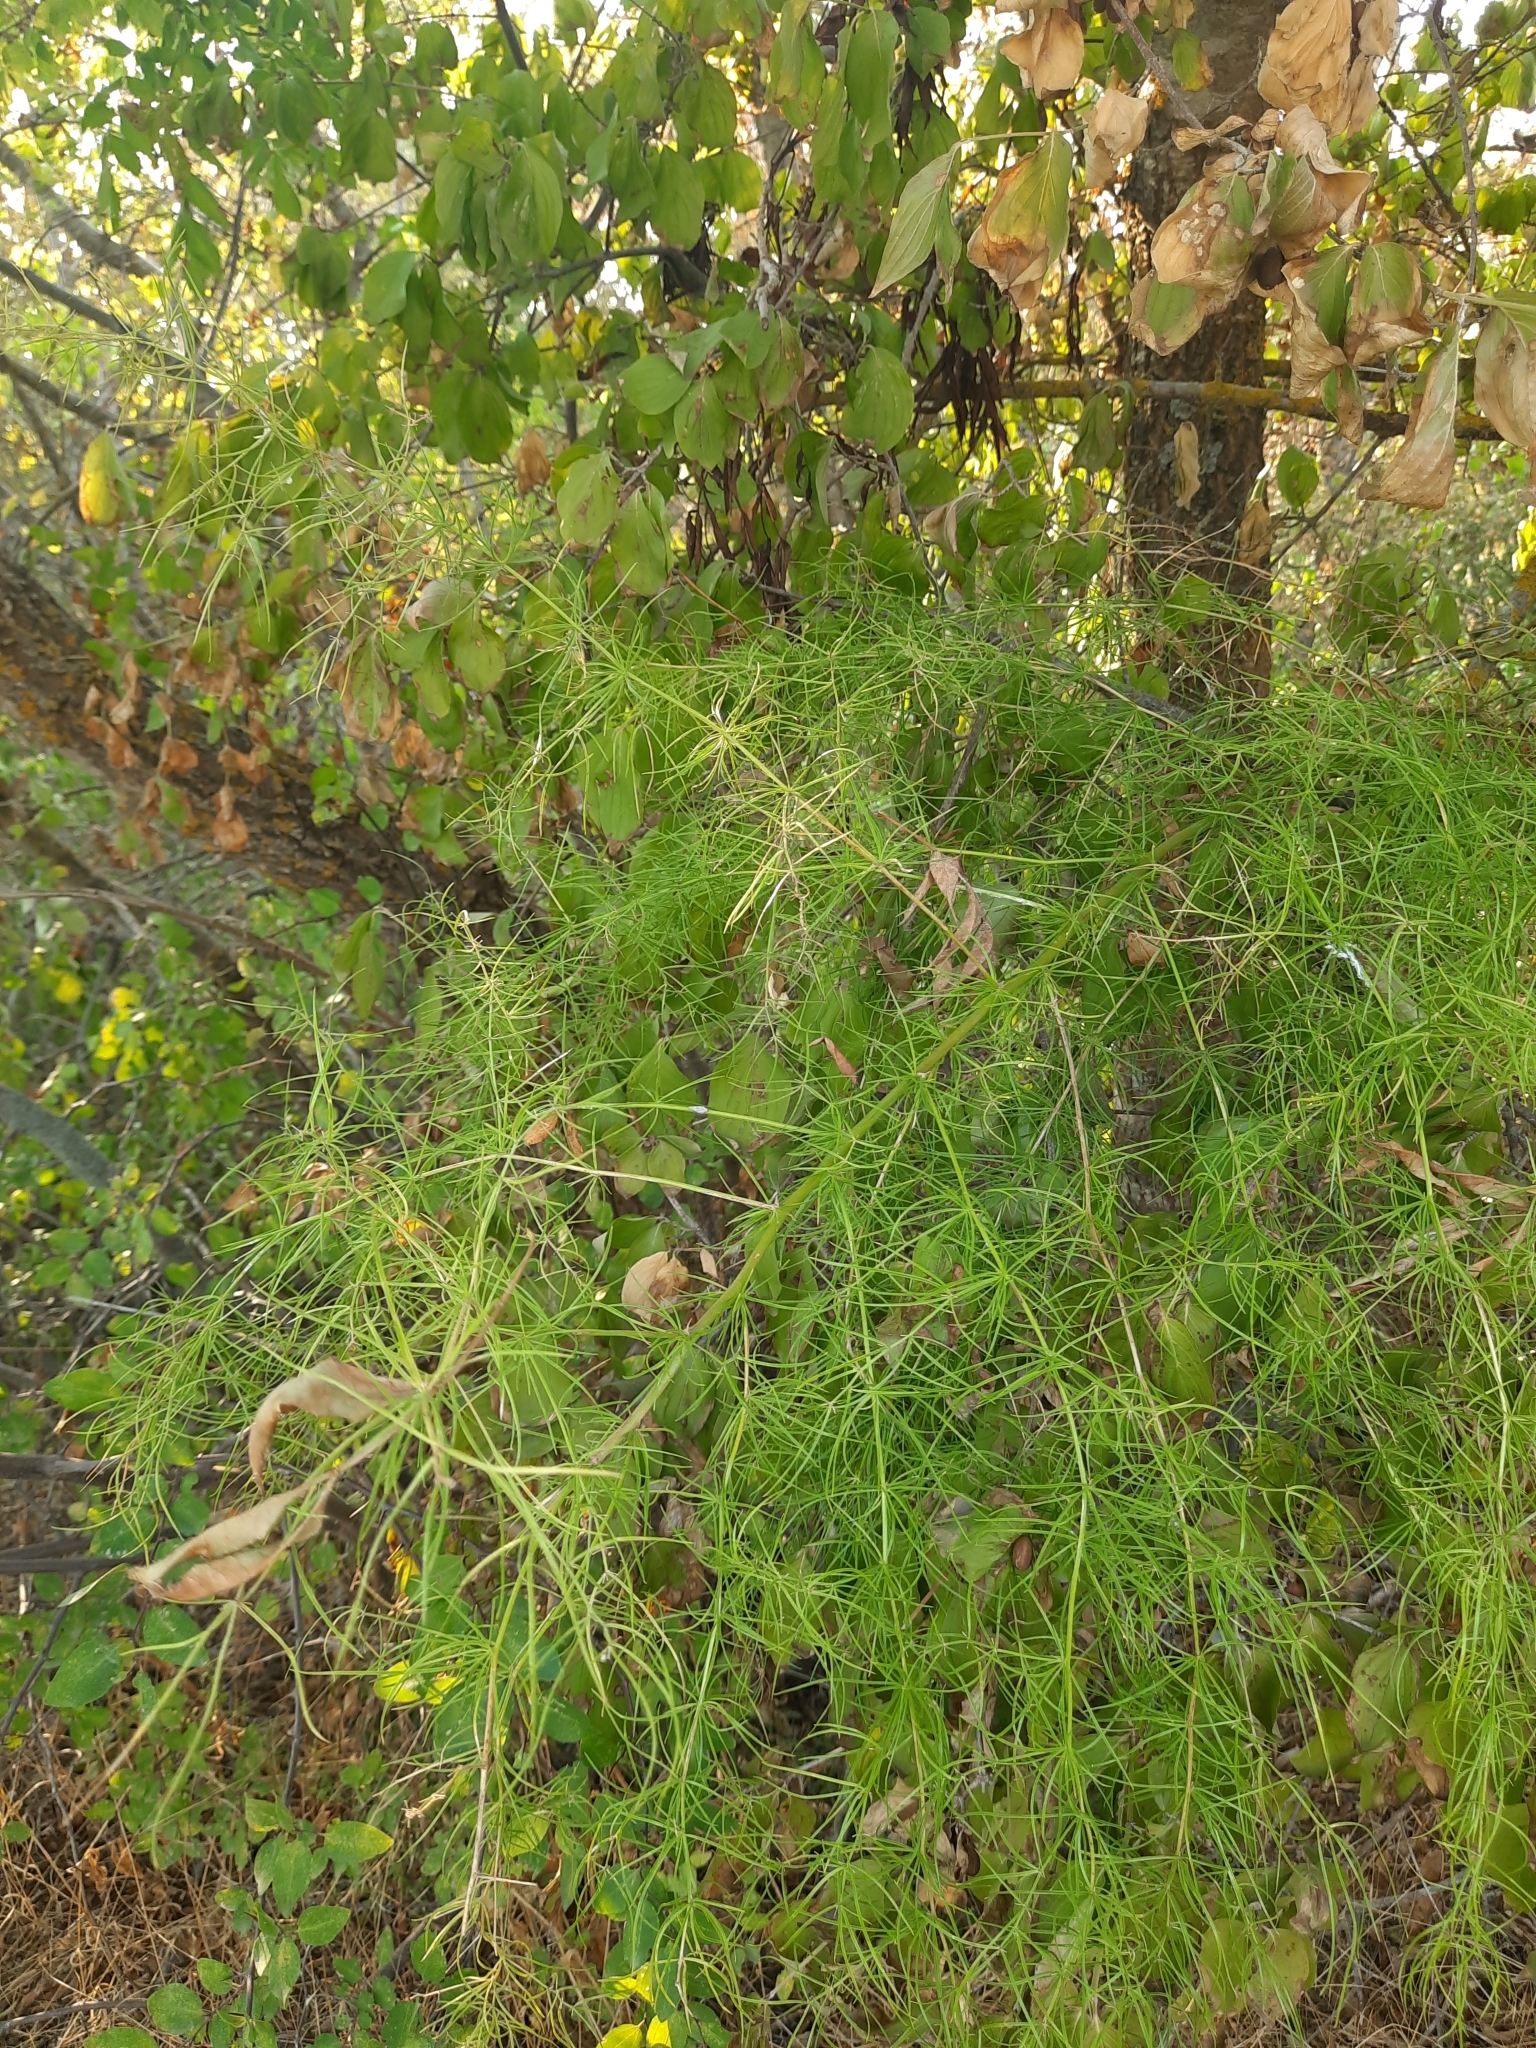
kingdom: Plantae
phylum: Tracheophyta
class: Liliopsida
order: Asparagales
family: Asparagaceae
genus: Asparagus
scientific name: Asparagus verticillatus
